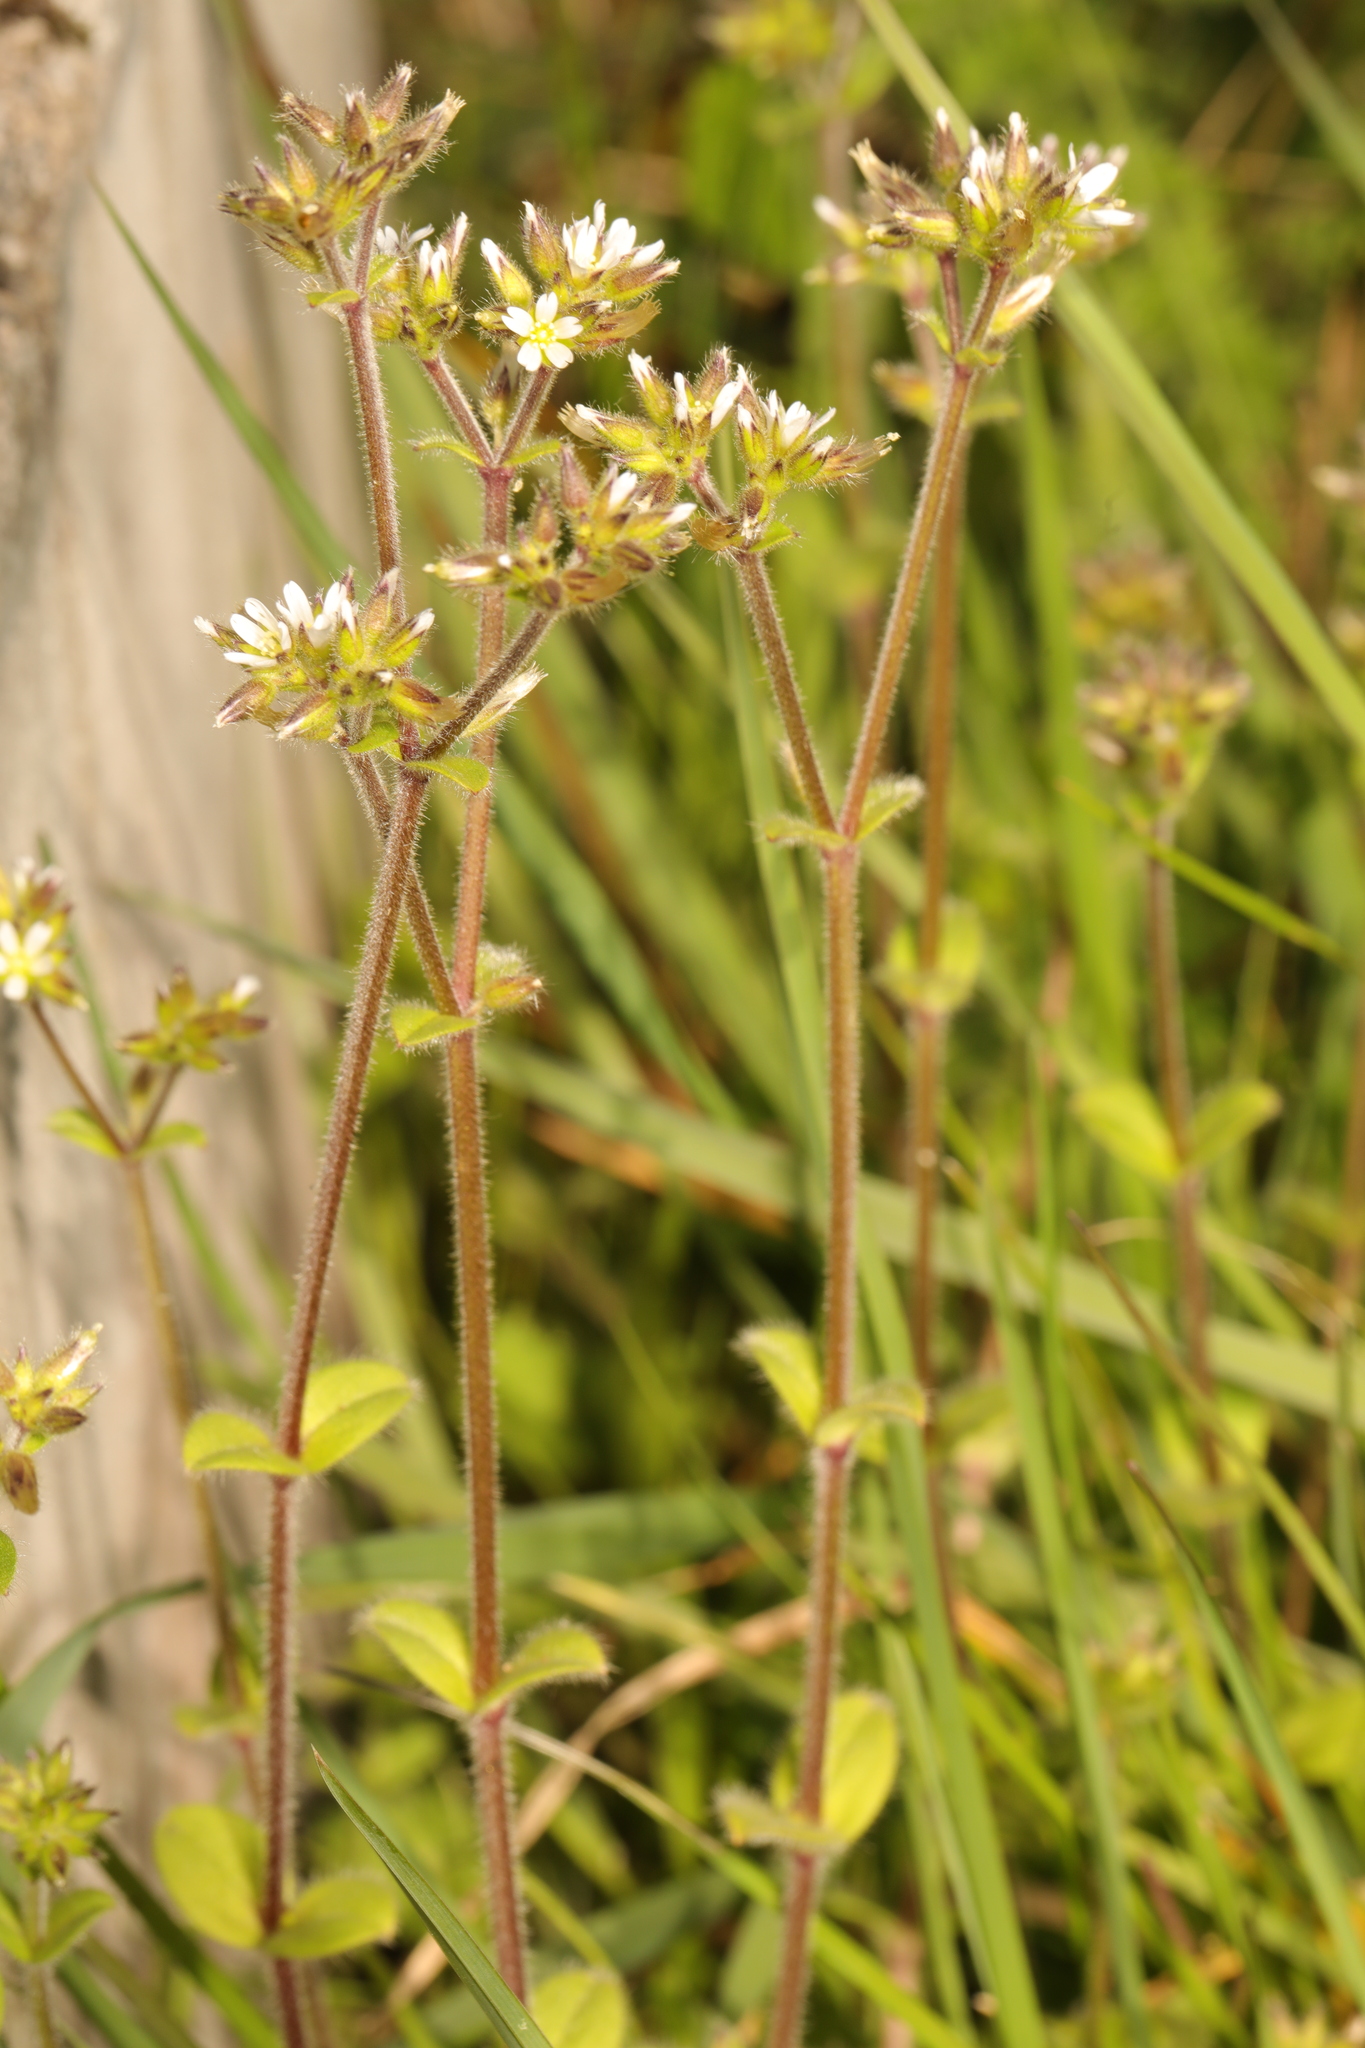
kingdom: Plantae
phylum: Tracheophyta
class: Magnoliopsida
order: Caryophyllales
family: Caryophyllaceae
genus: Cerastium
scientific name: Cerastium glomeratum
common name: Sticky chickweed
